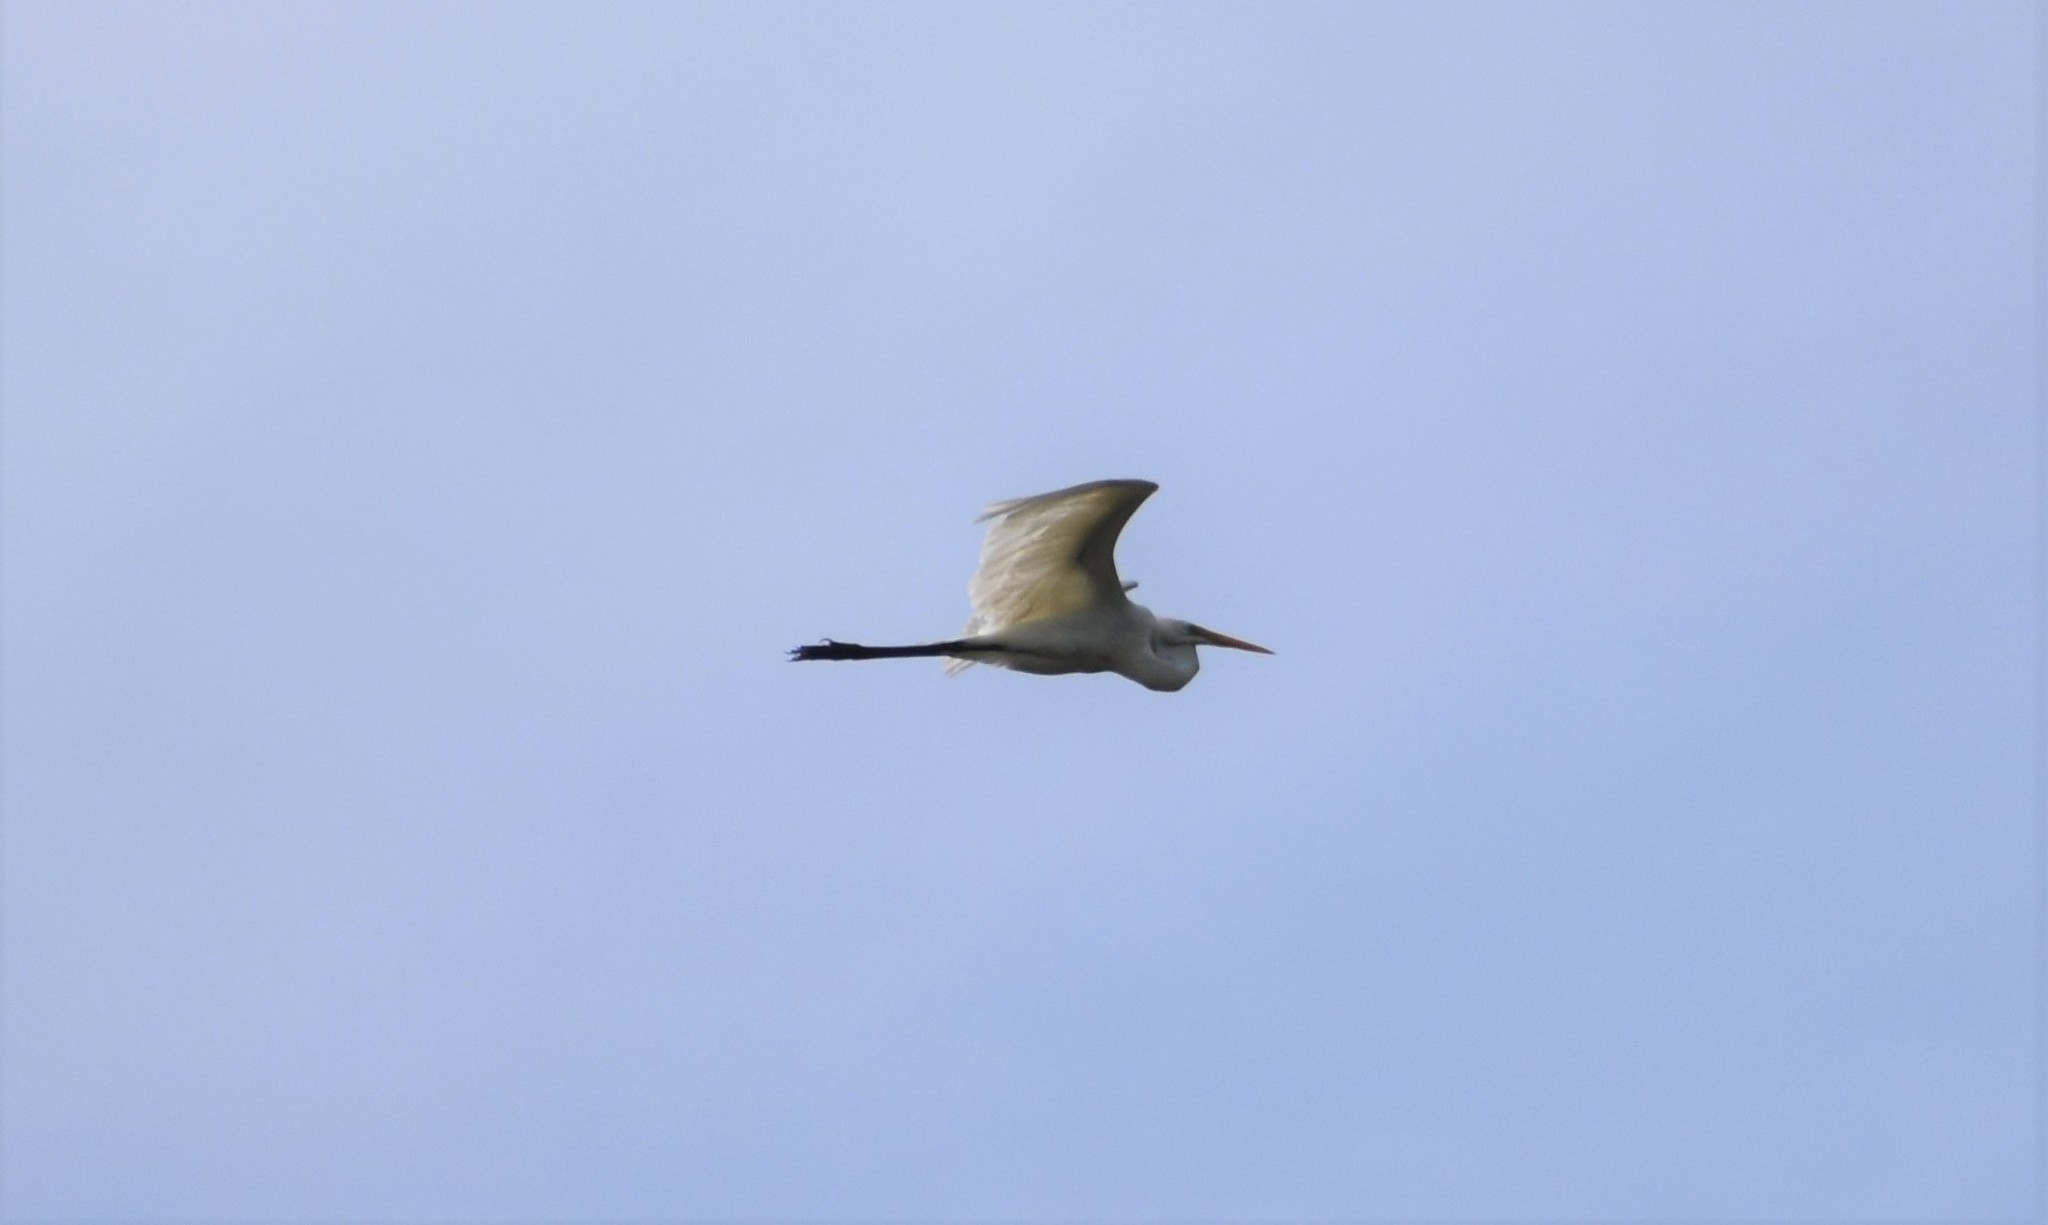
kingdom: Animalia
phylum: Chordata
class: Aves
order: Pelecaniformes
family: Ardeidae
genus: Ardea
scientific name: Ardea alba
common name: Great egret
